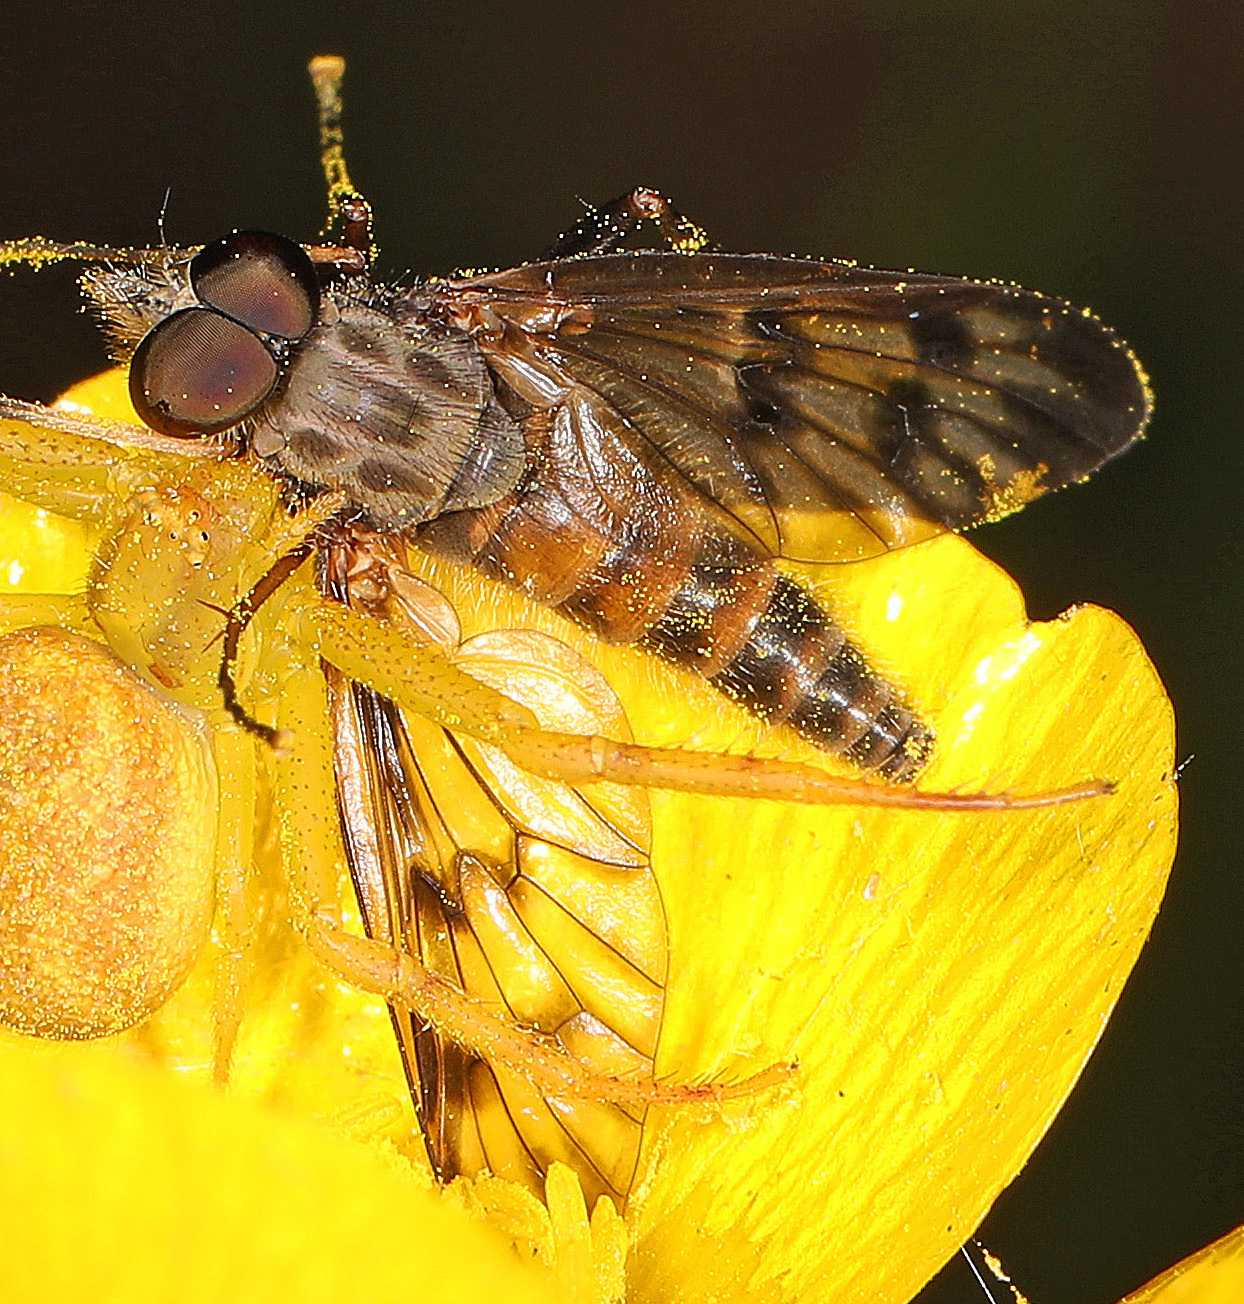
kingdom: Animalia
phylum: Arthropoda
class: Insecta
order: Diptera
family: Rhagionidae
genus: Rhagio
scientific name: Rhagio mystaceus
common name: Common snipe fly
